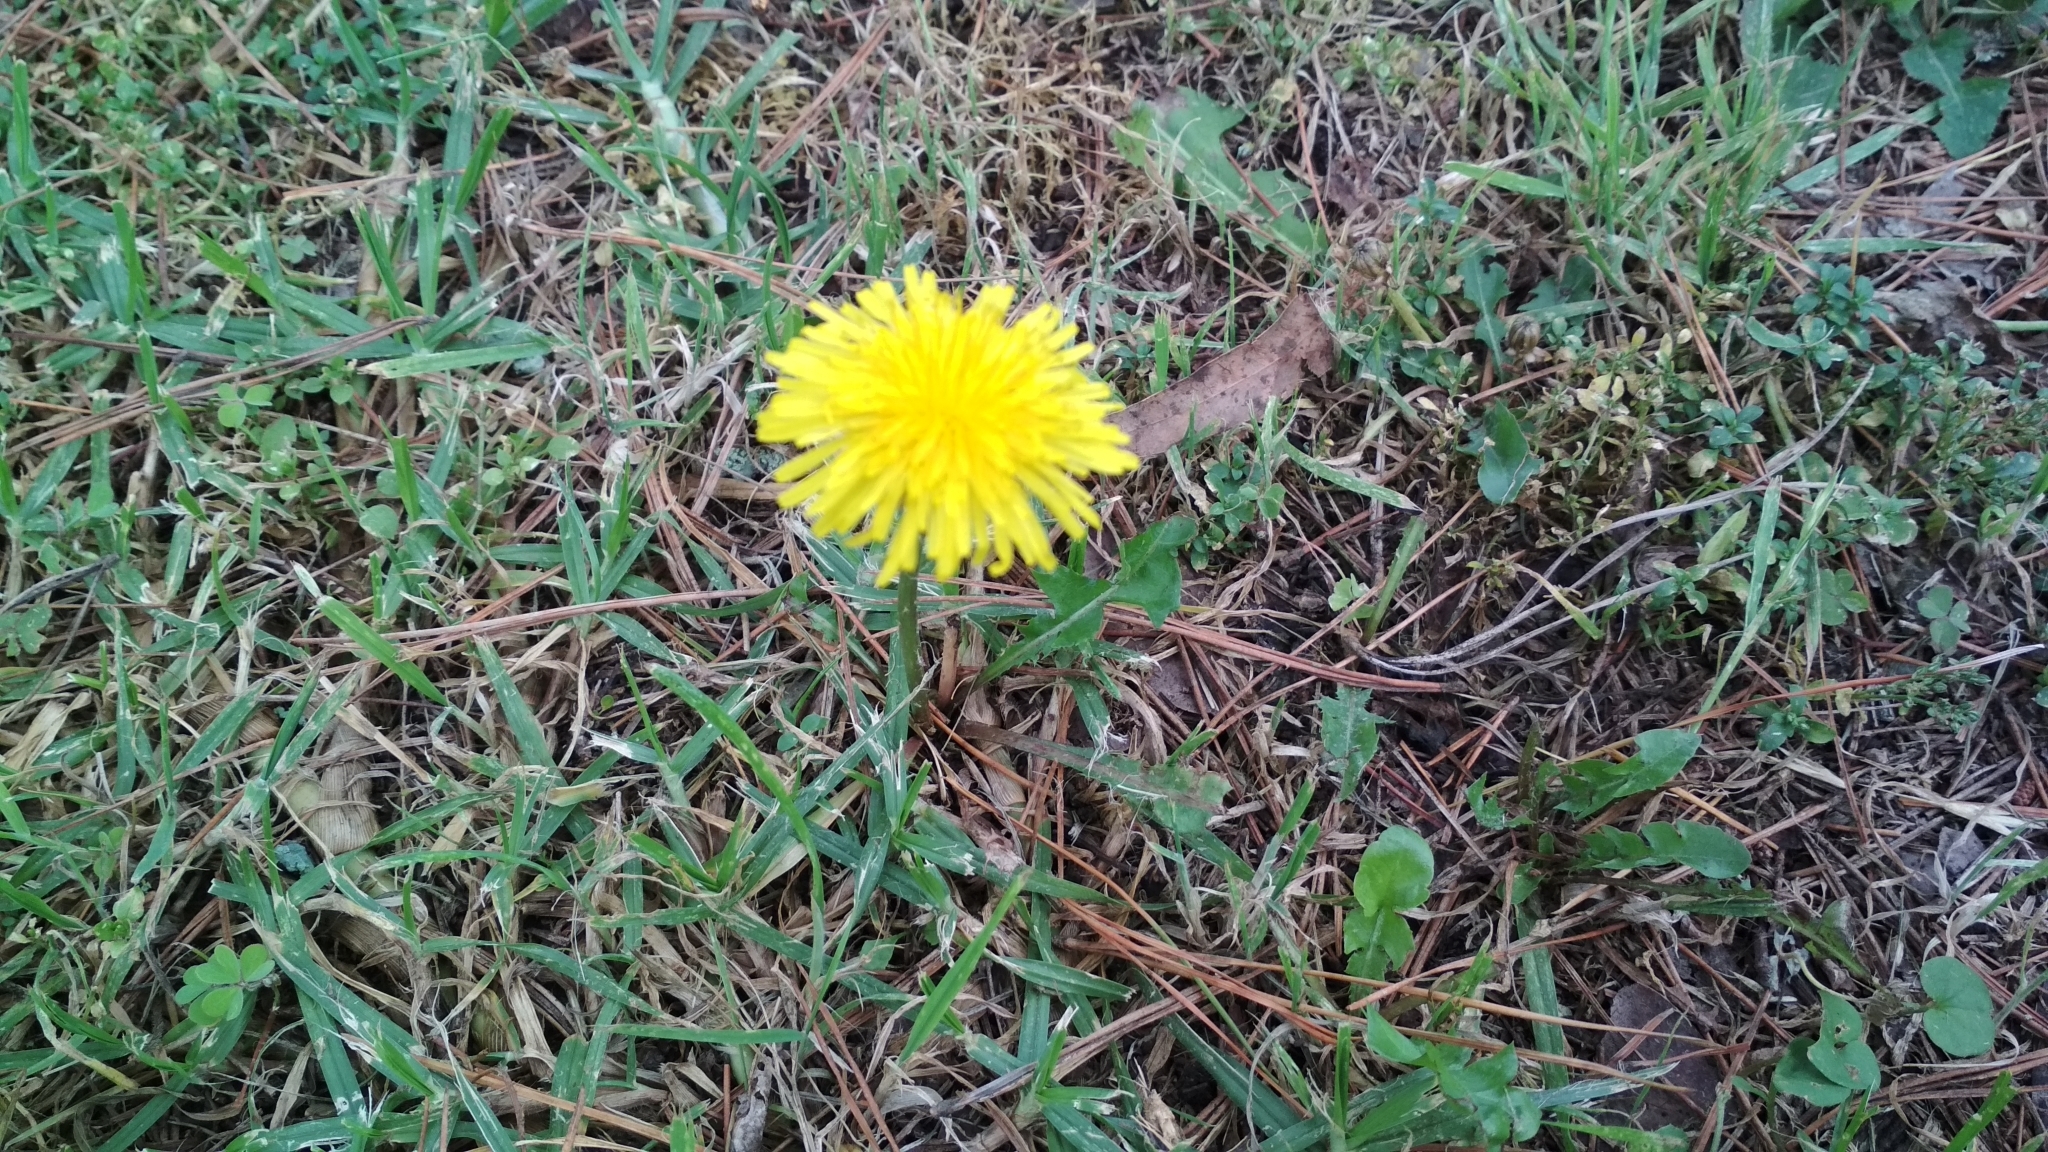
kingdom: Plantae
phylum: Tracheophyta
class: Magnoliopsida
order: Asterales
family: Asteraceae
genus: Taraxacum
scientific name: Taraxacum officinale
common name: Common dandelion
